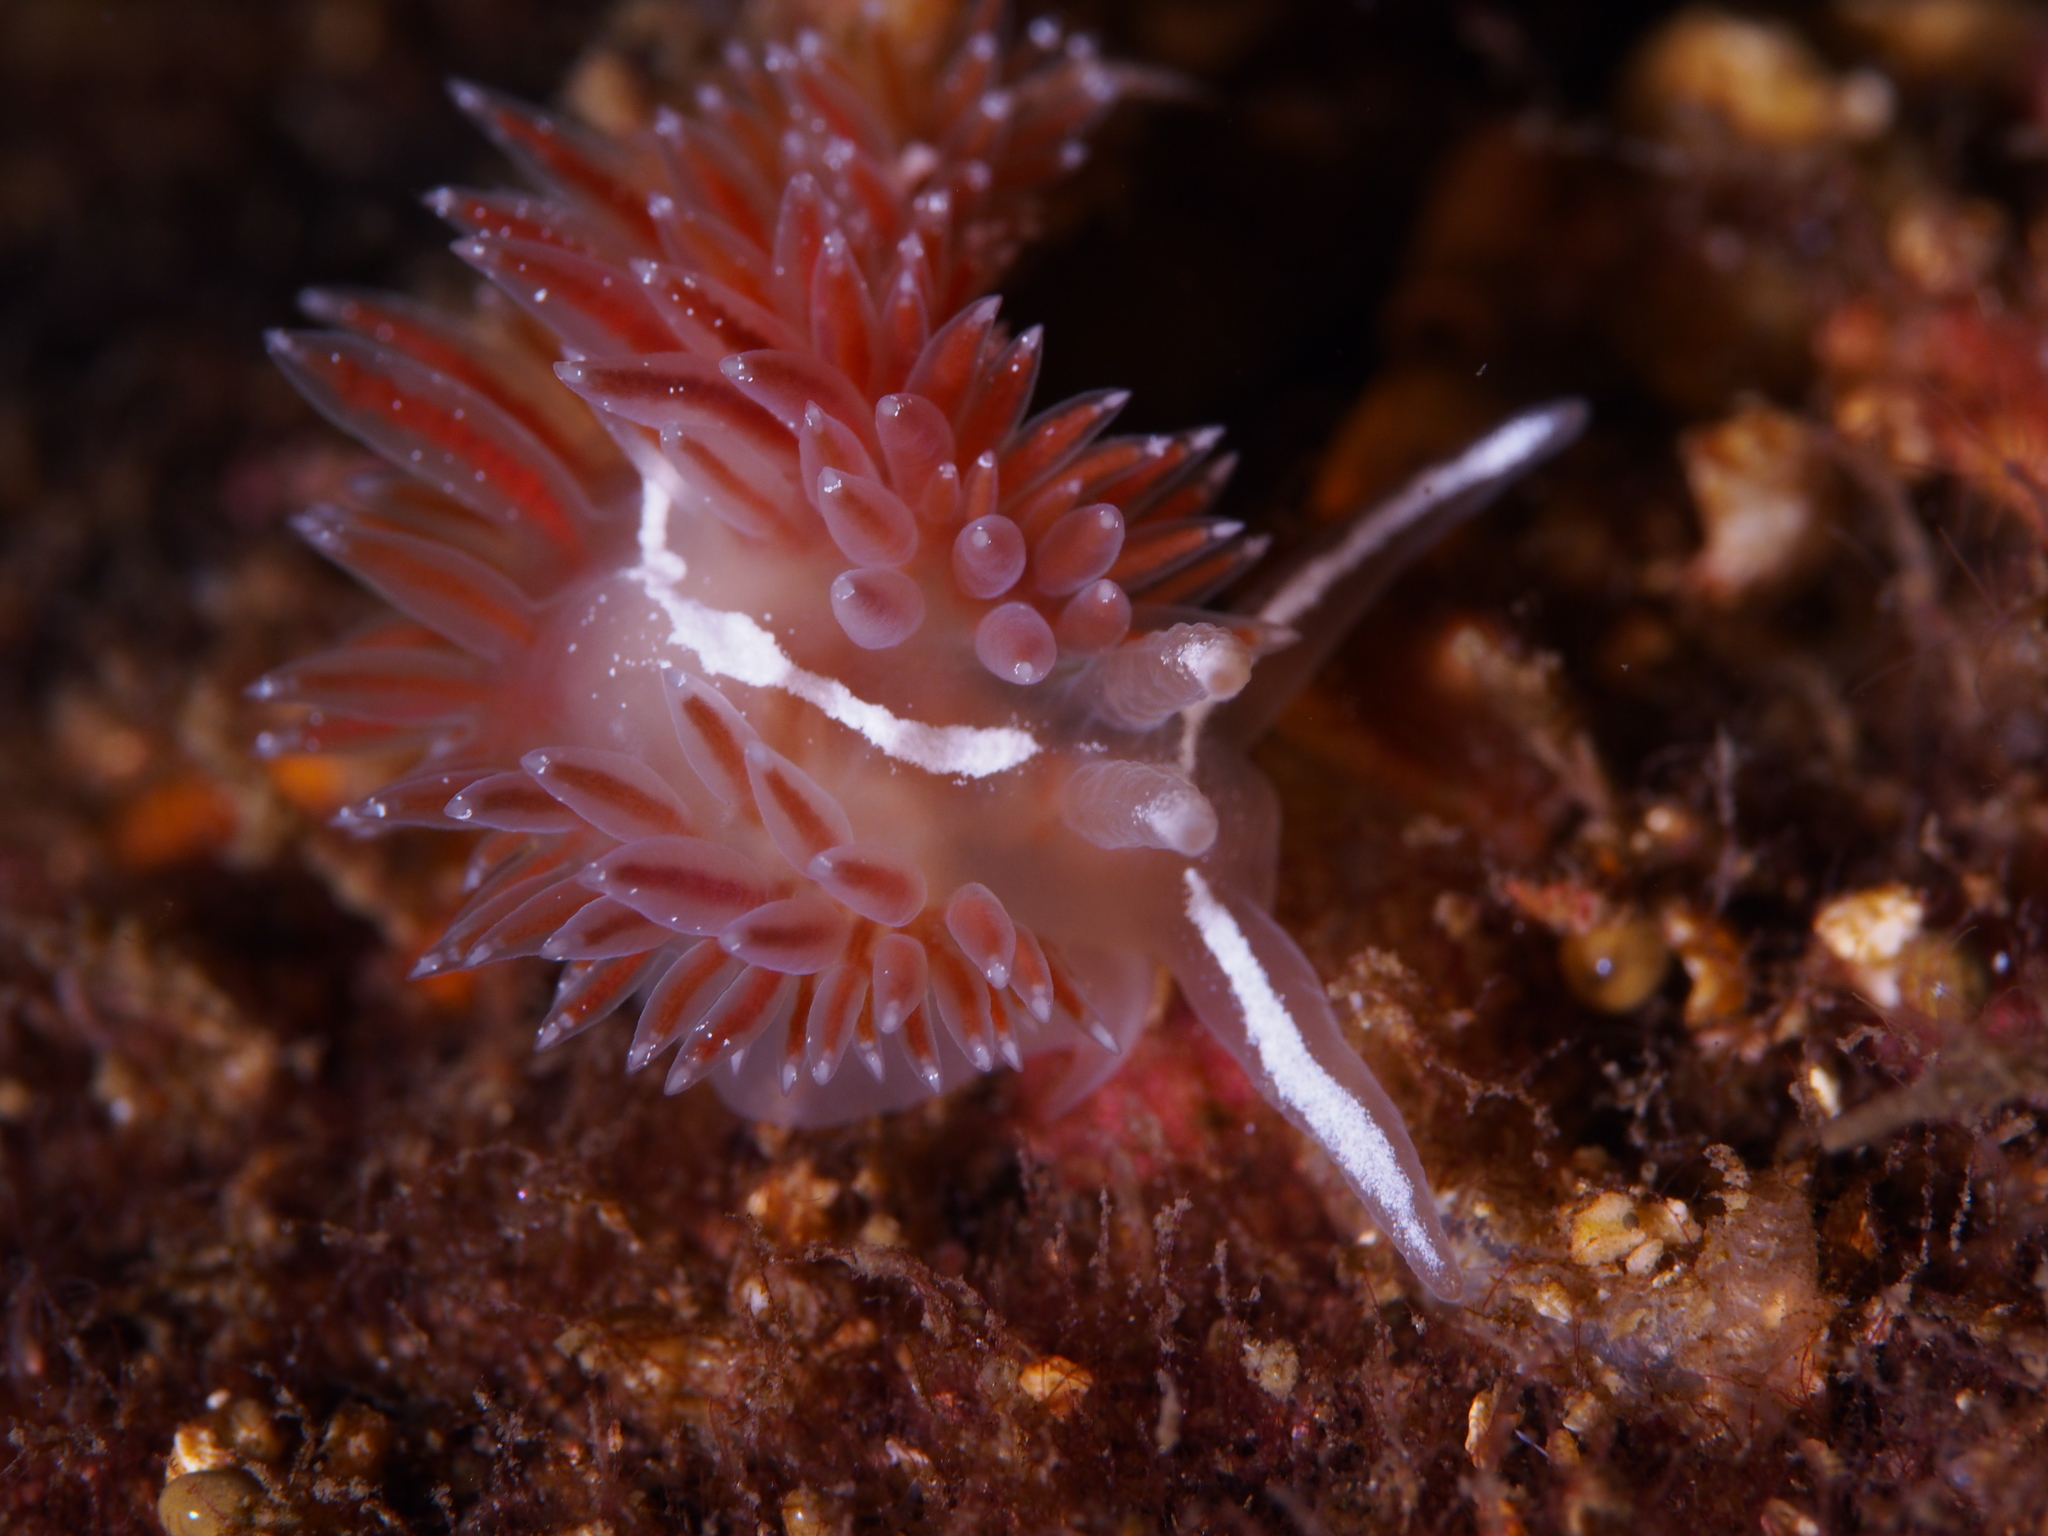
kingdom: Animalia
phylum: Mollusca
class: Gastropoda
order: Nudibranchia
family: Coryphellidae
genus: Coryphella
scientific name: Coryphella orjani
